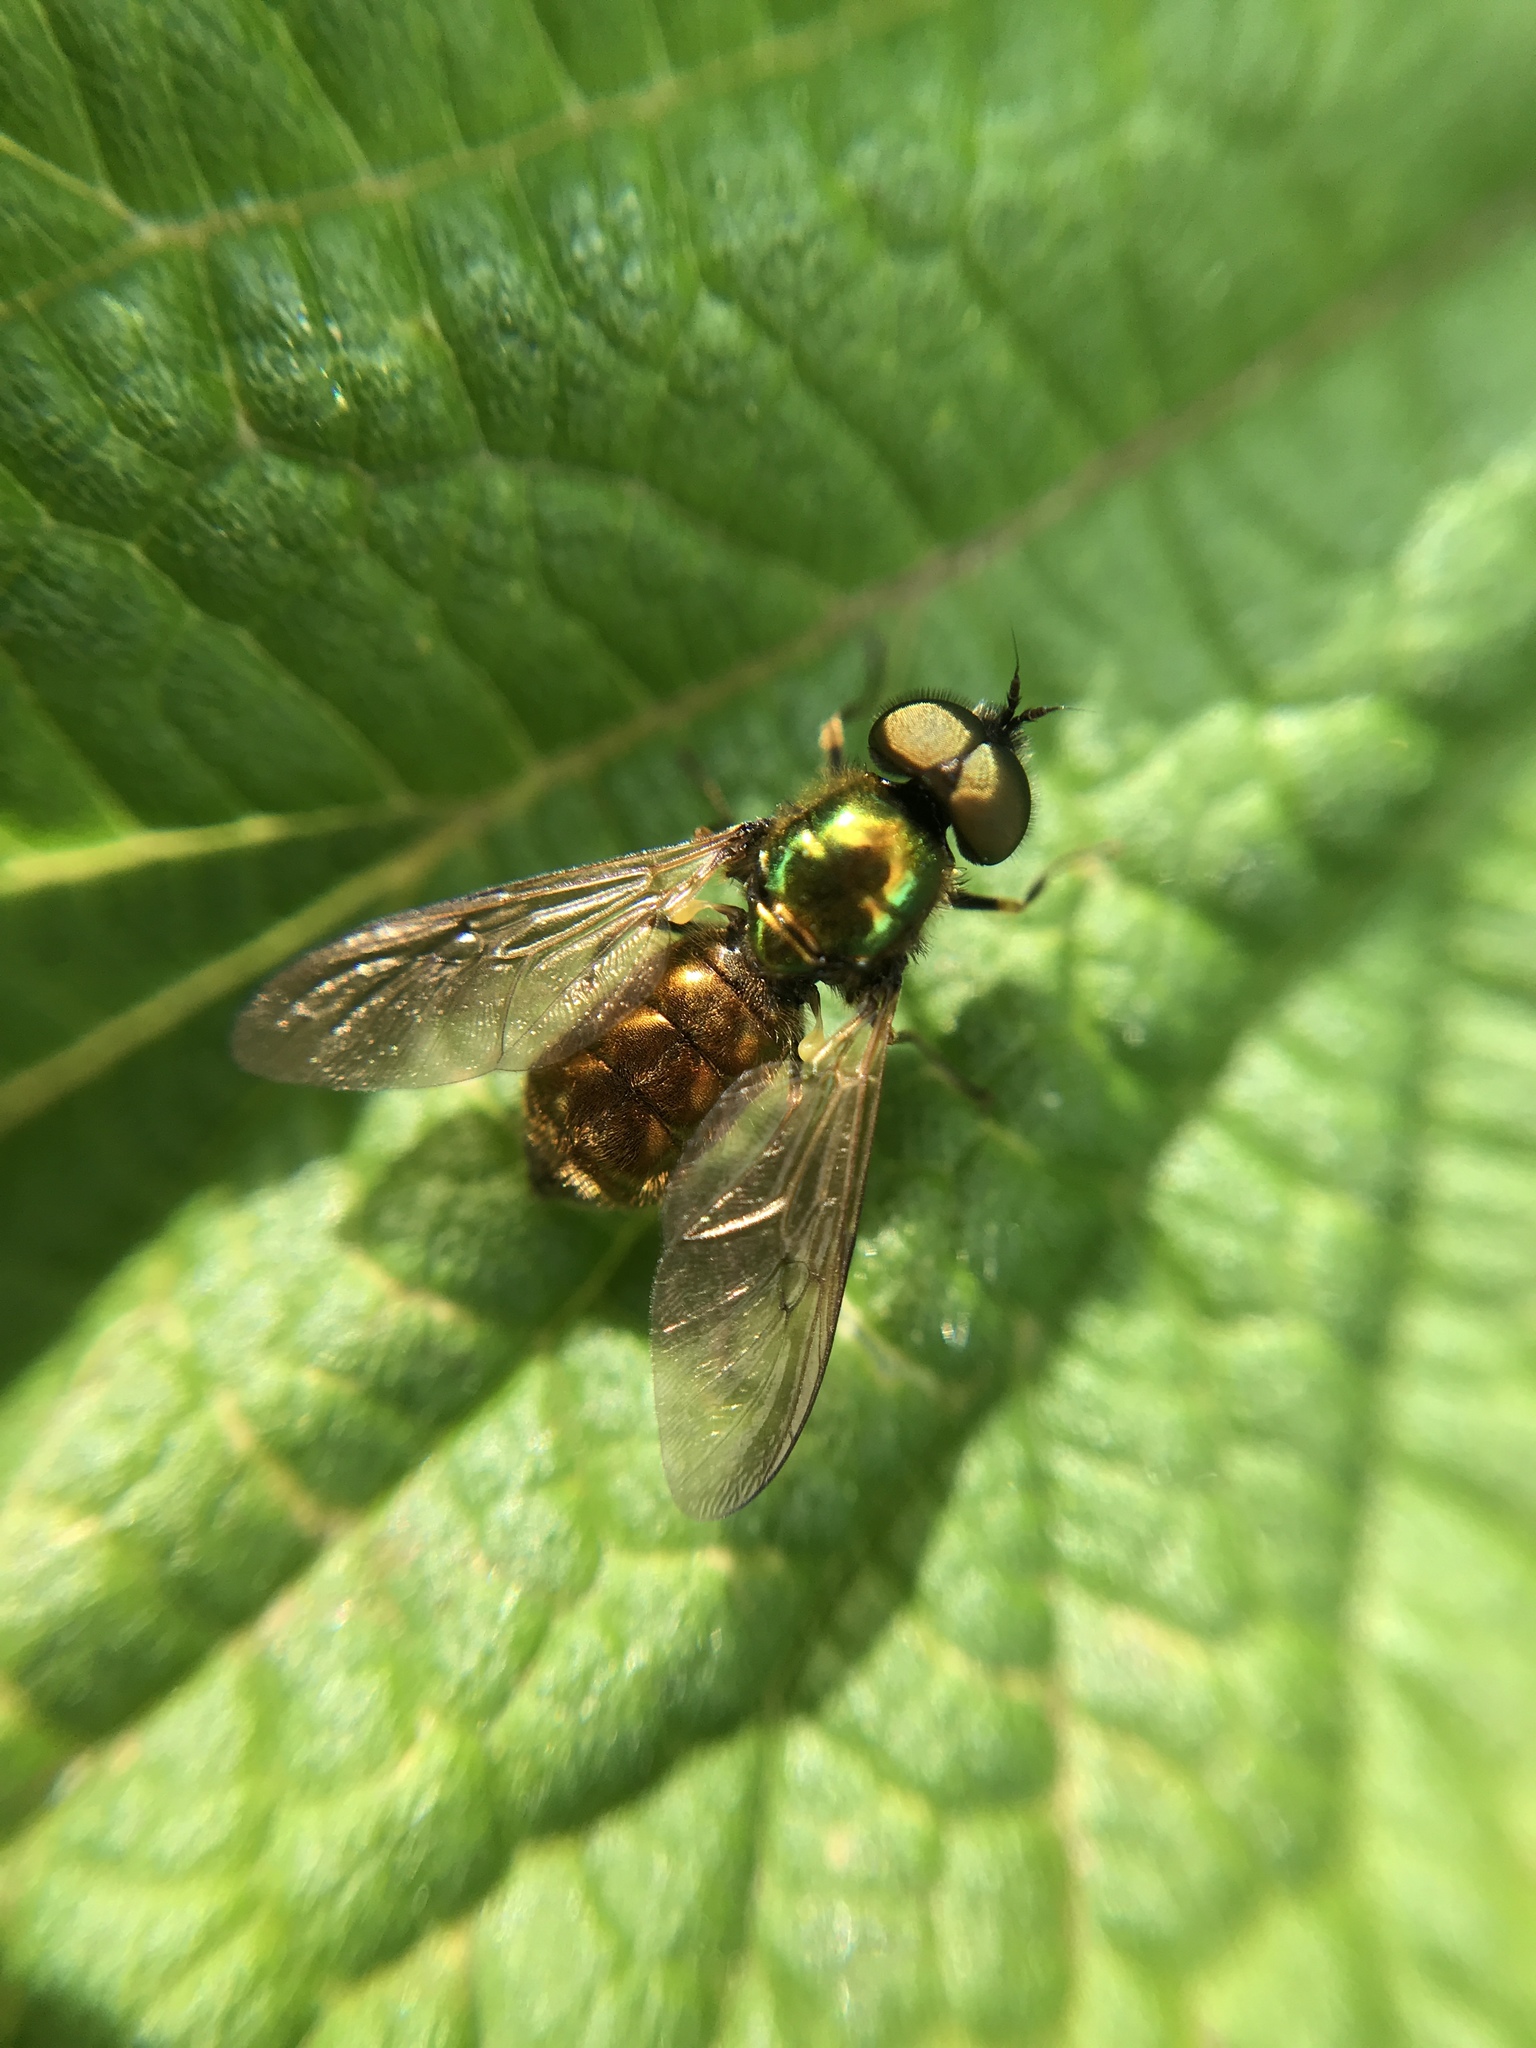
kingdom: Animalia
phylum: Arthropoda
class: Insecta
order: Diptera
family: Stratiomyidae
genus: Chloromyia
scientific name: Chloromyia formosa
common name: Soldier fly
